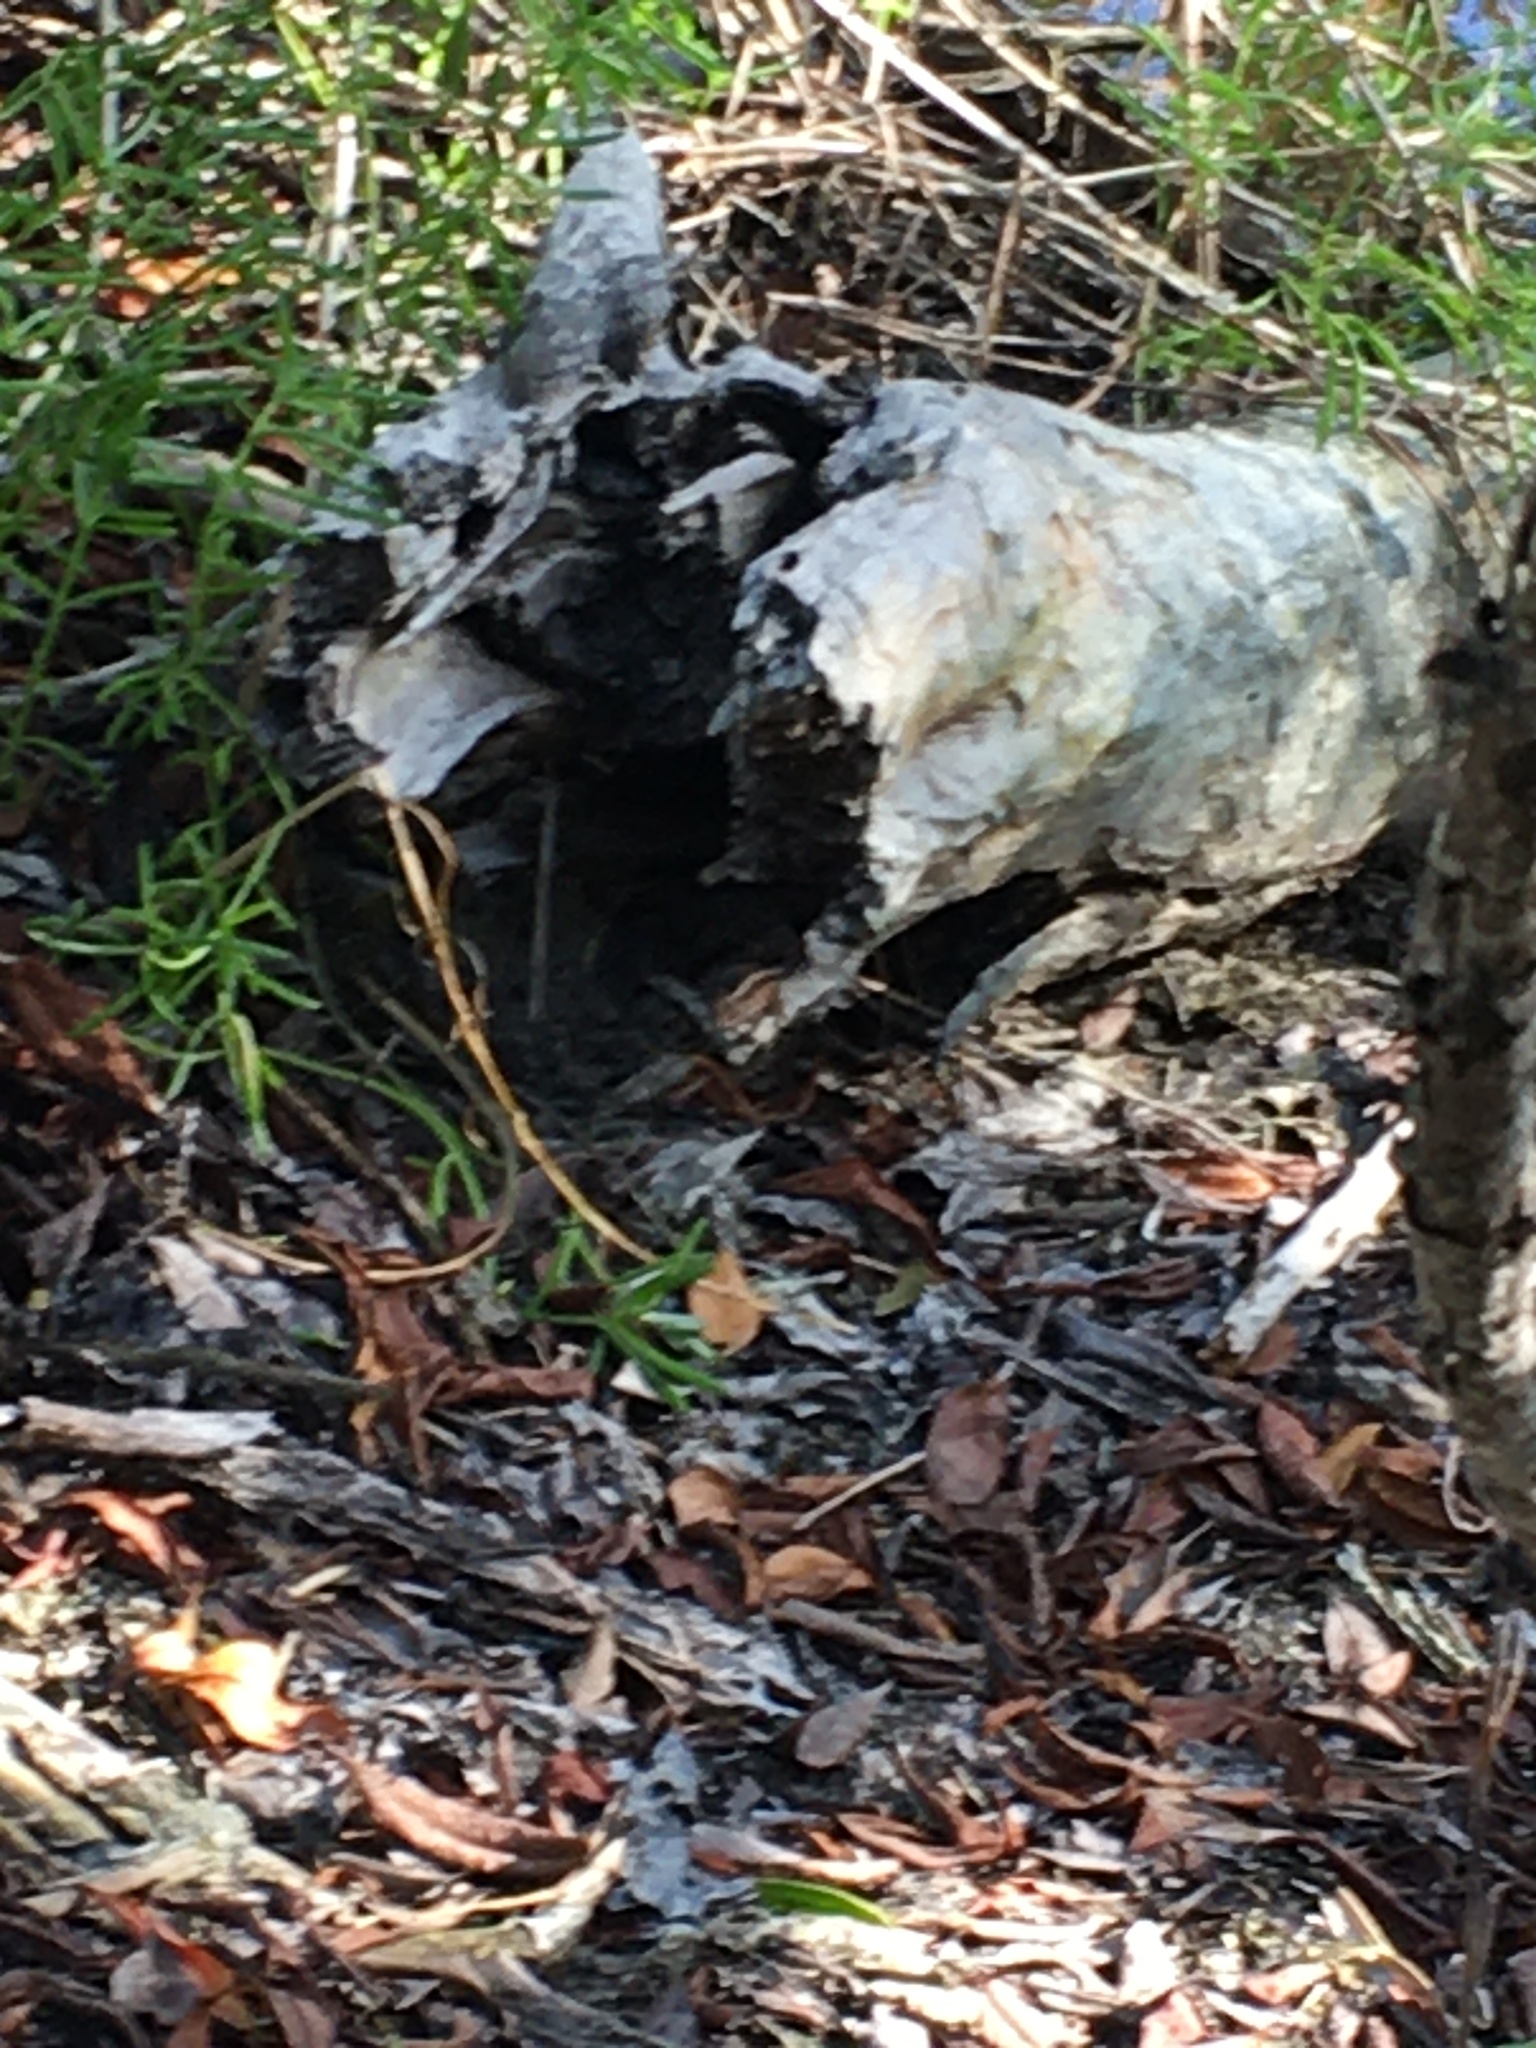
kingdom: Animalia
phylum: Chordata
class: Squamata
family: Dactyloidae
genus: Anolis
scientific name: Anolis sagrei
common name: Brown anole
